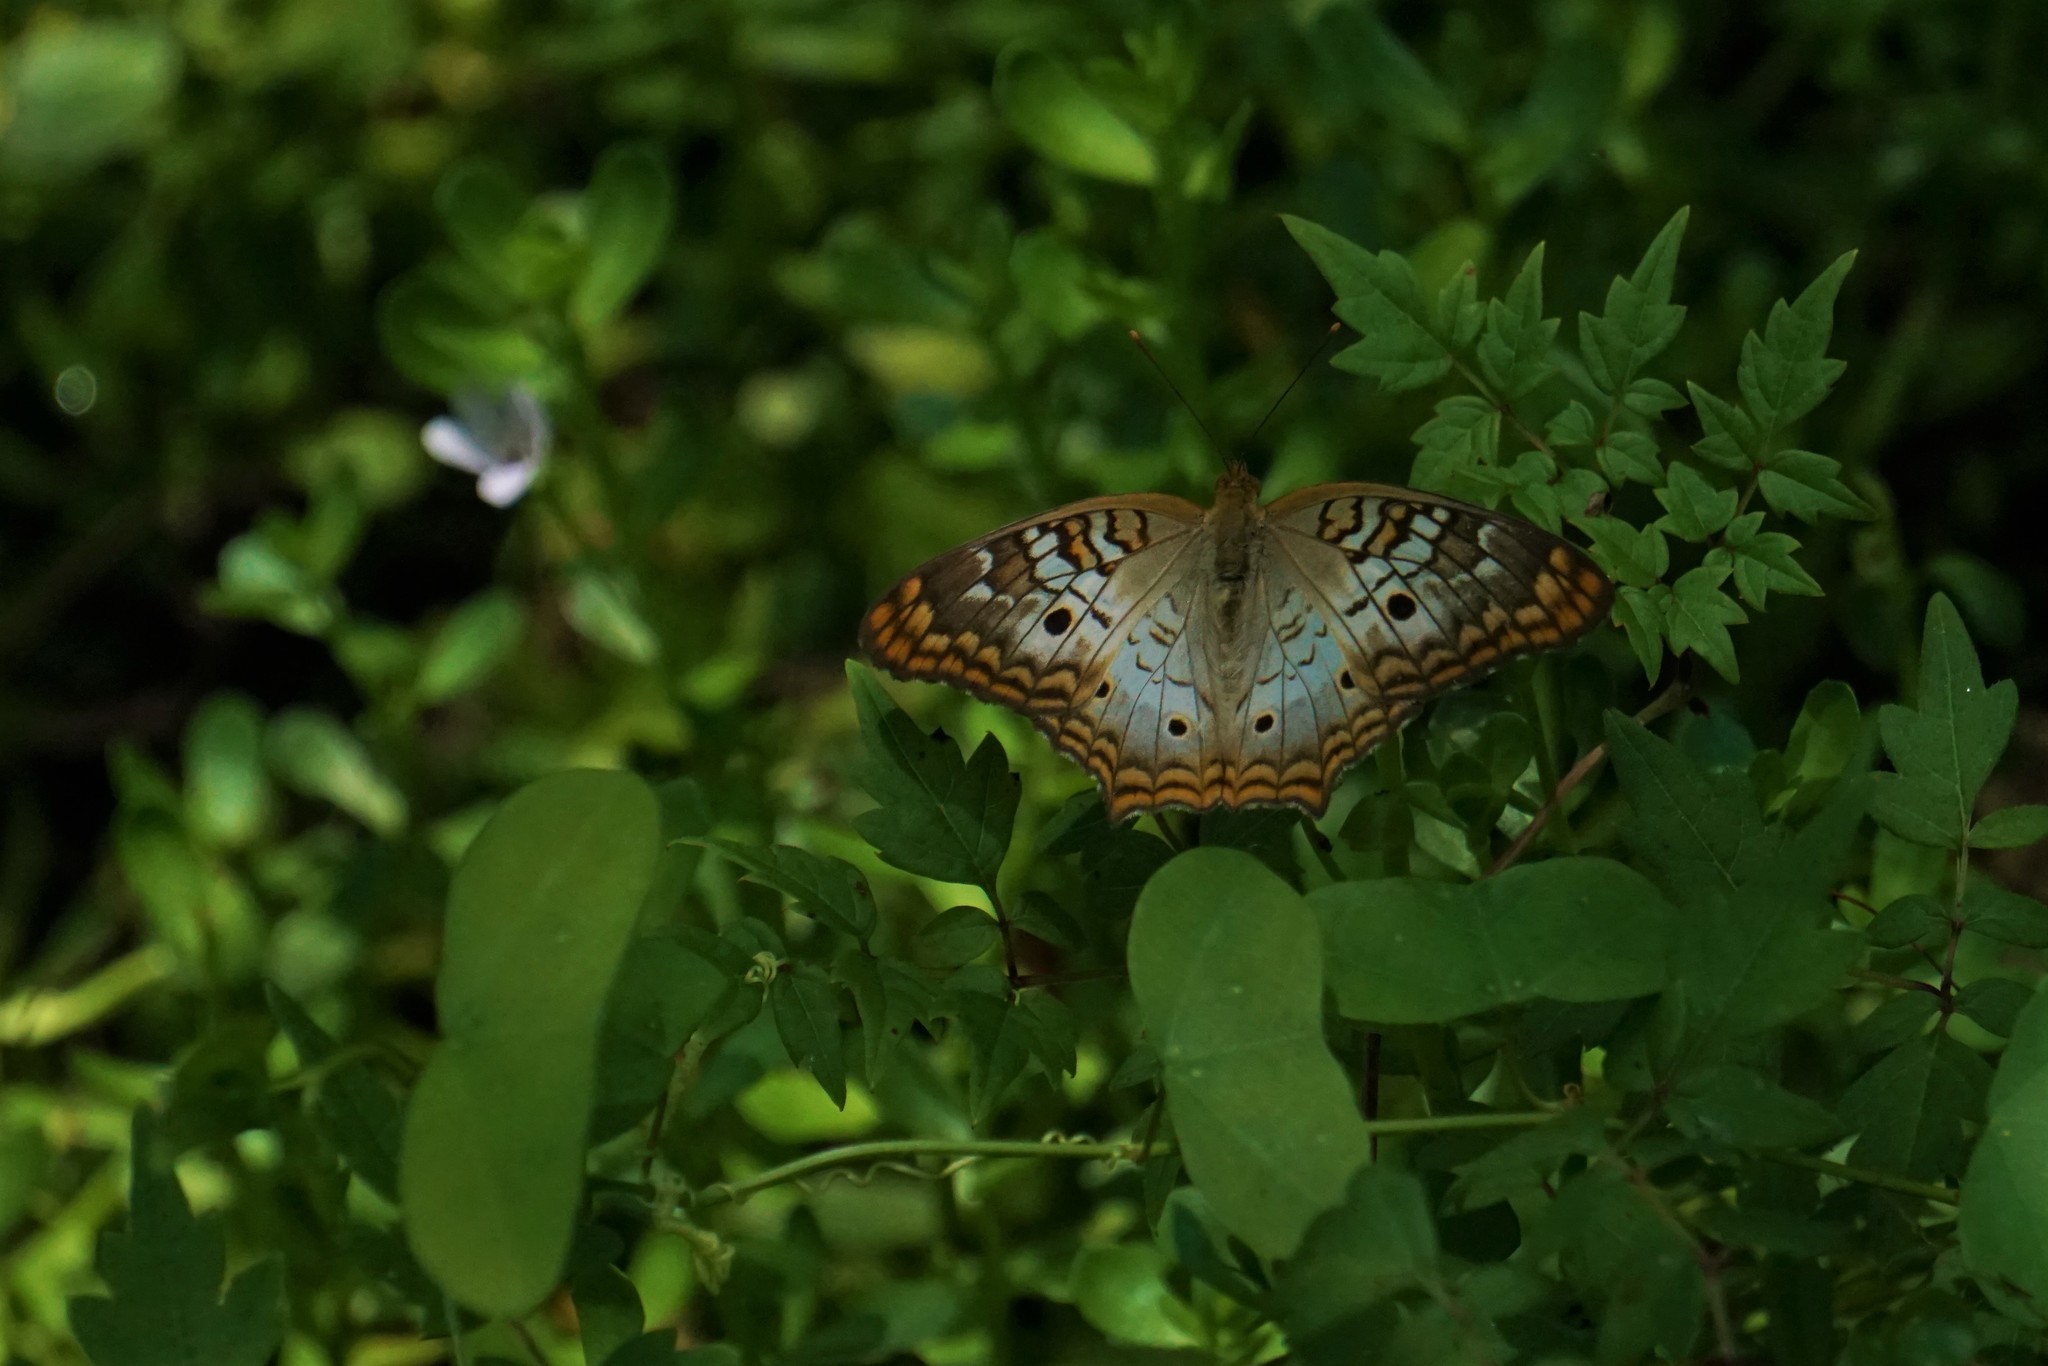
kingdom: Animalia
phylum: Arthropoda
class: Insecta
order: Lepidoptera
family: Nymphalidae
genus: Anartia
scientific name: Anartia jatrophae
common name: White peacock
